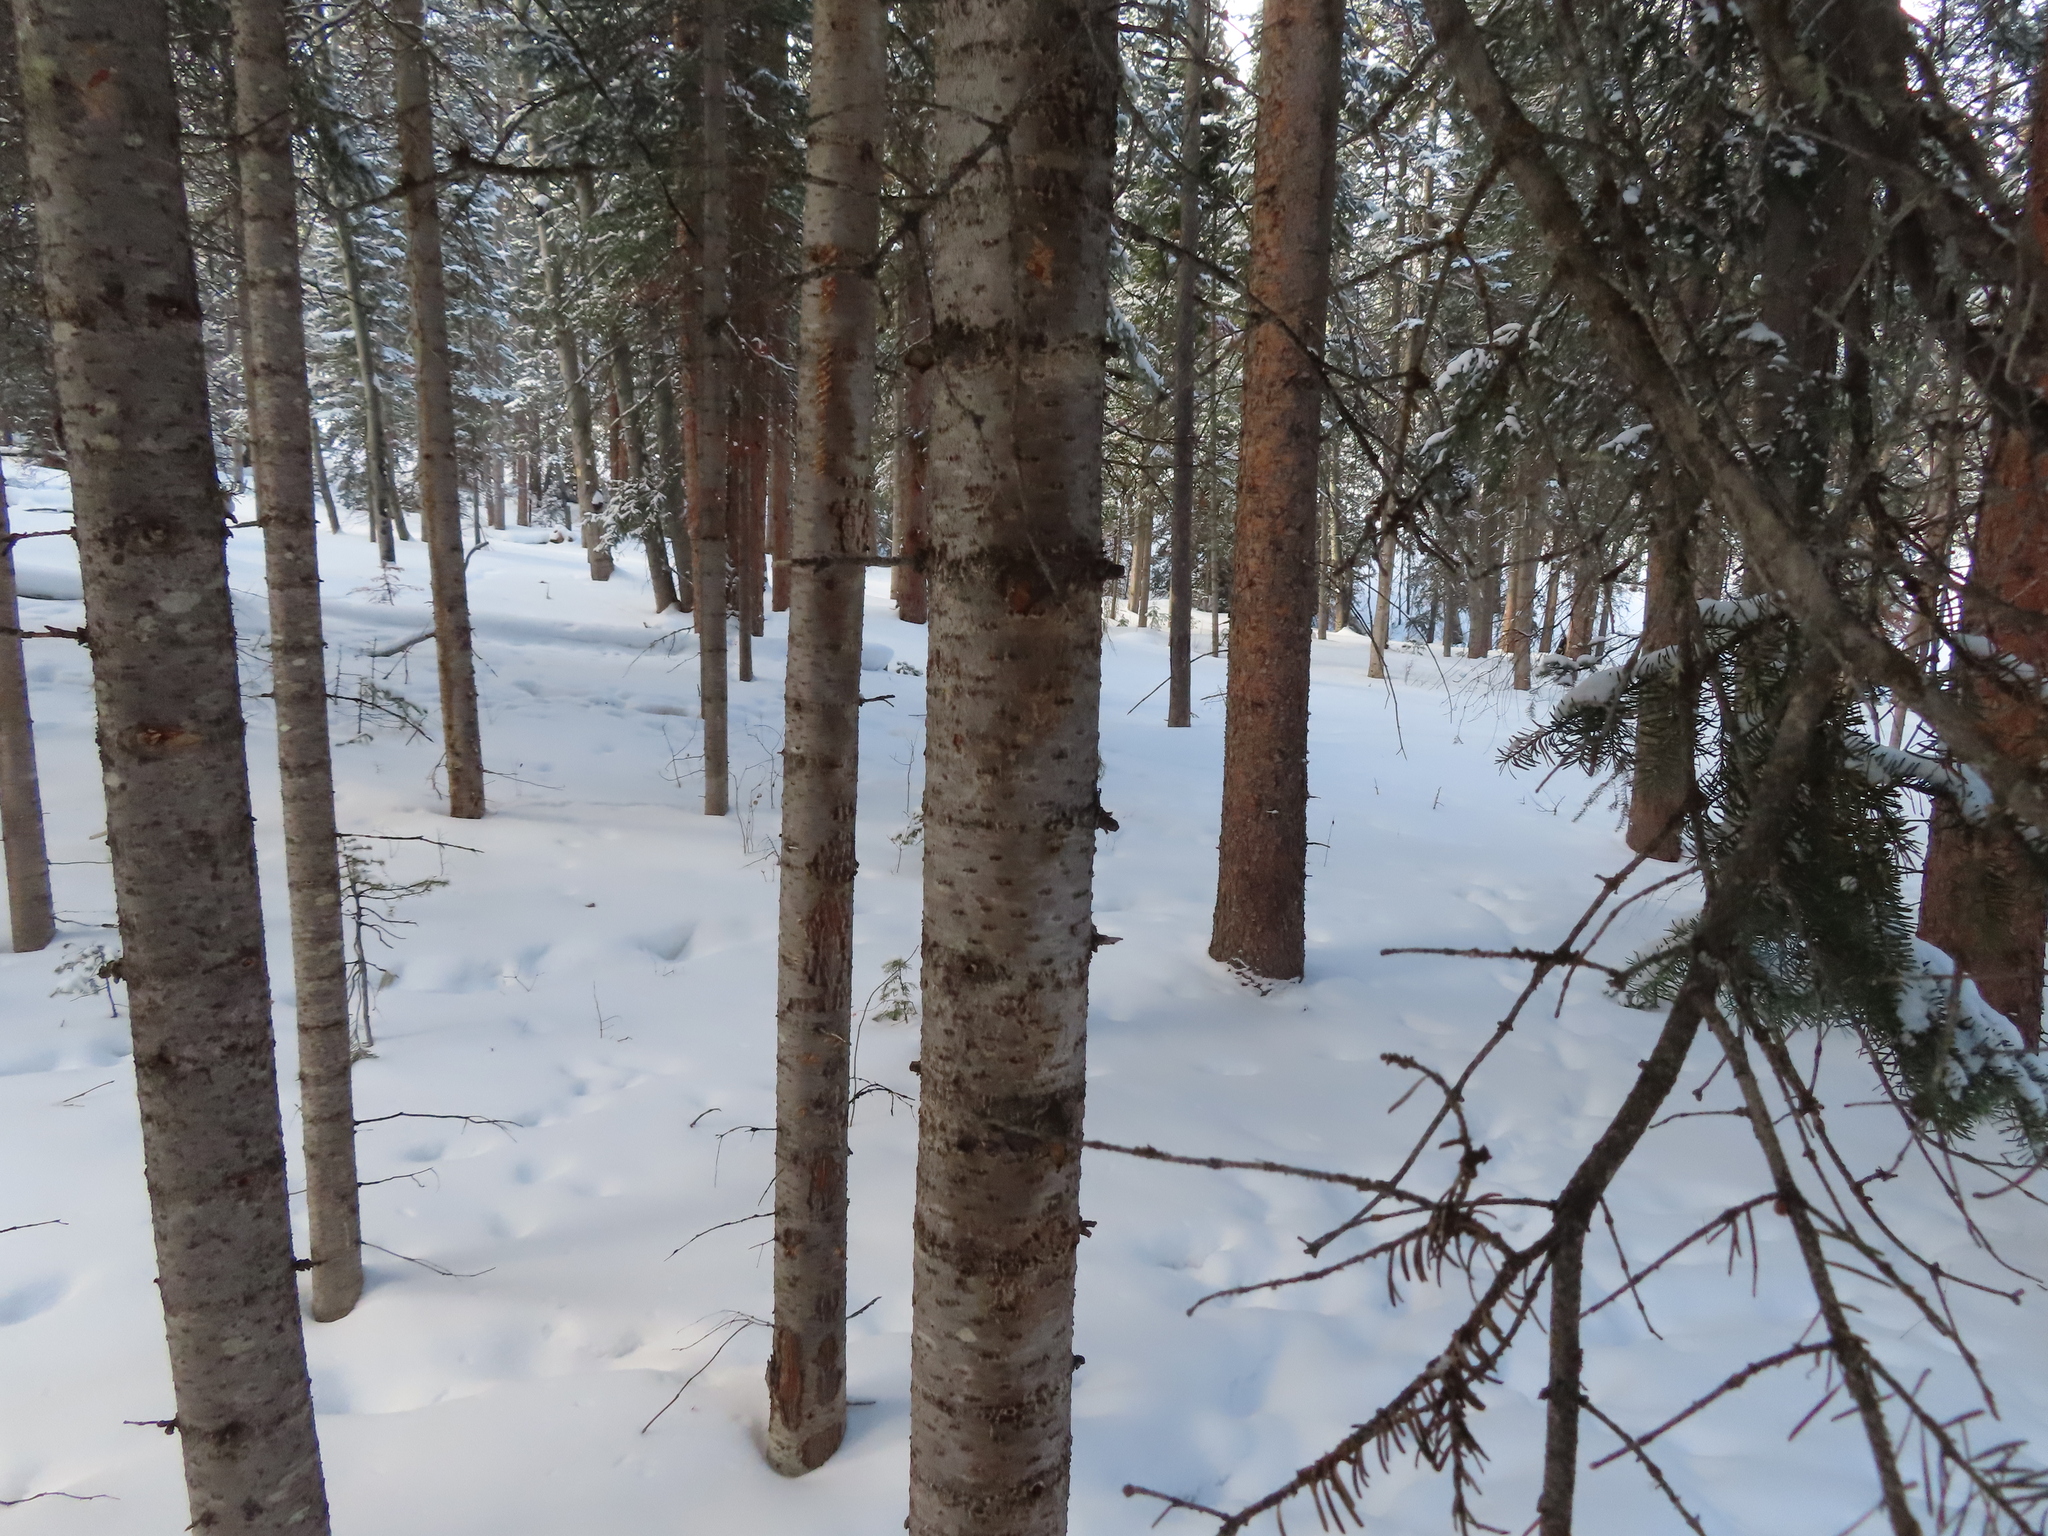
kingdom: Plantae
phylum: Tracheophyta
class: Pinopsida
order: Pinales
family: Pinaceae
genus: Abies
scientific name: Abies lasiocarpa
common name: Subalpine fir
